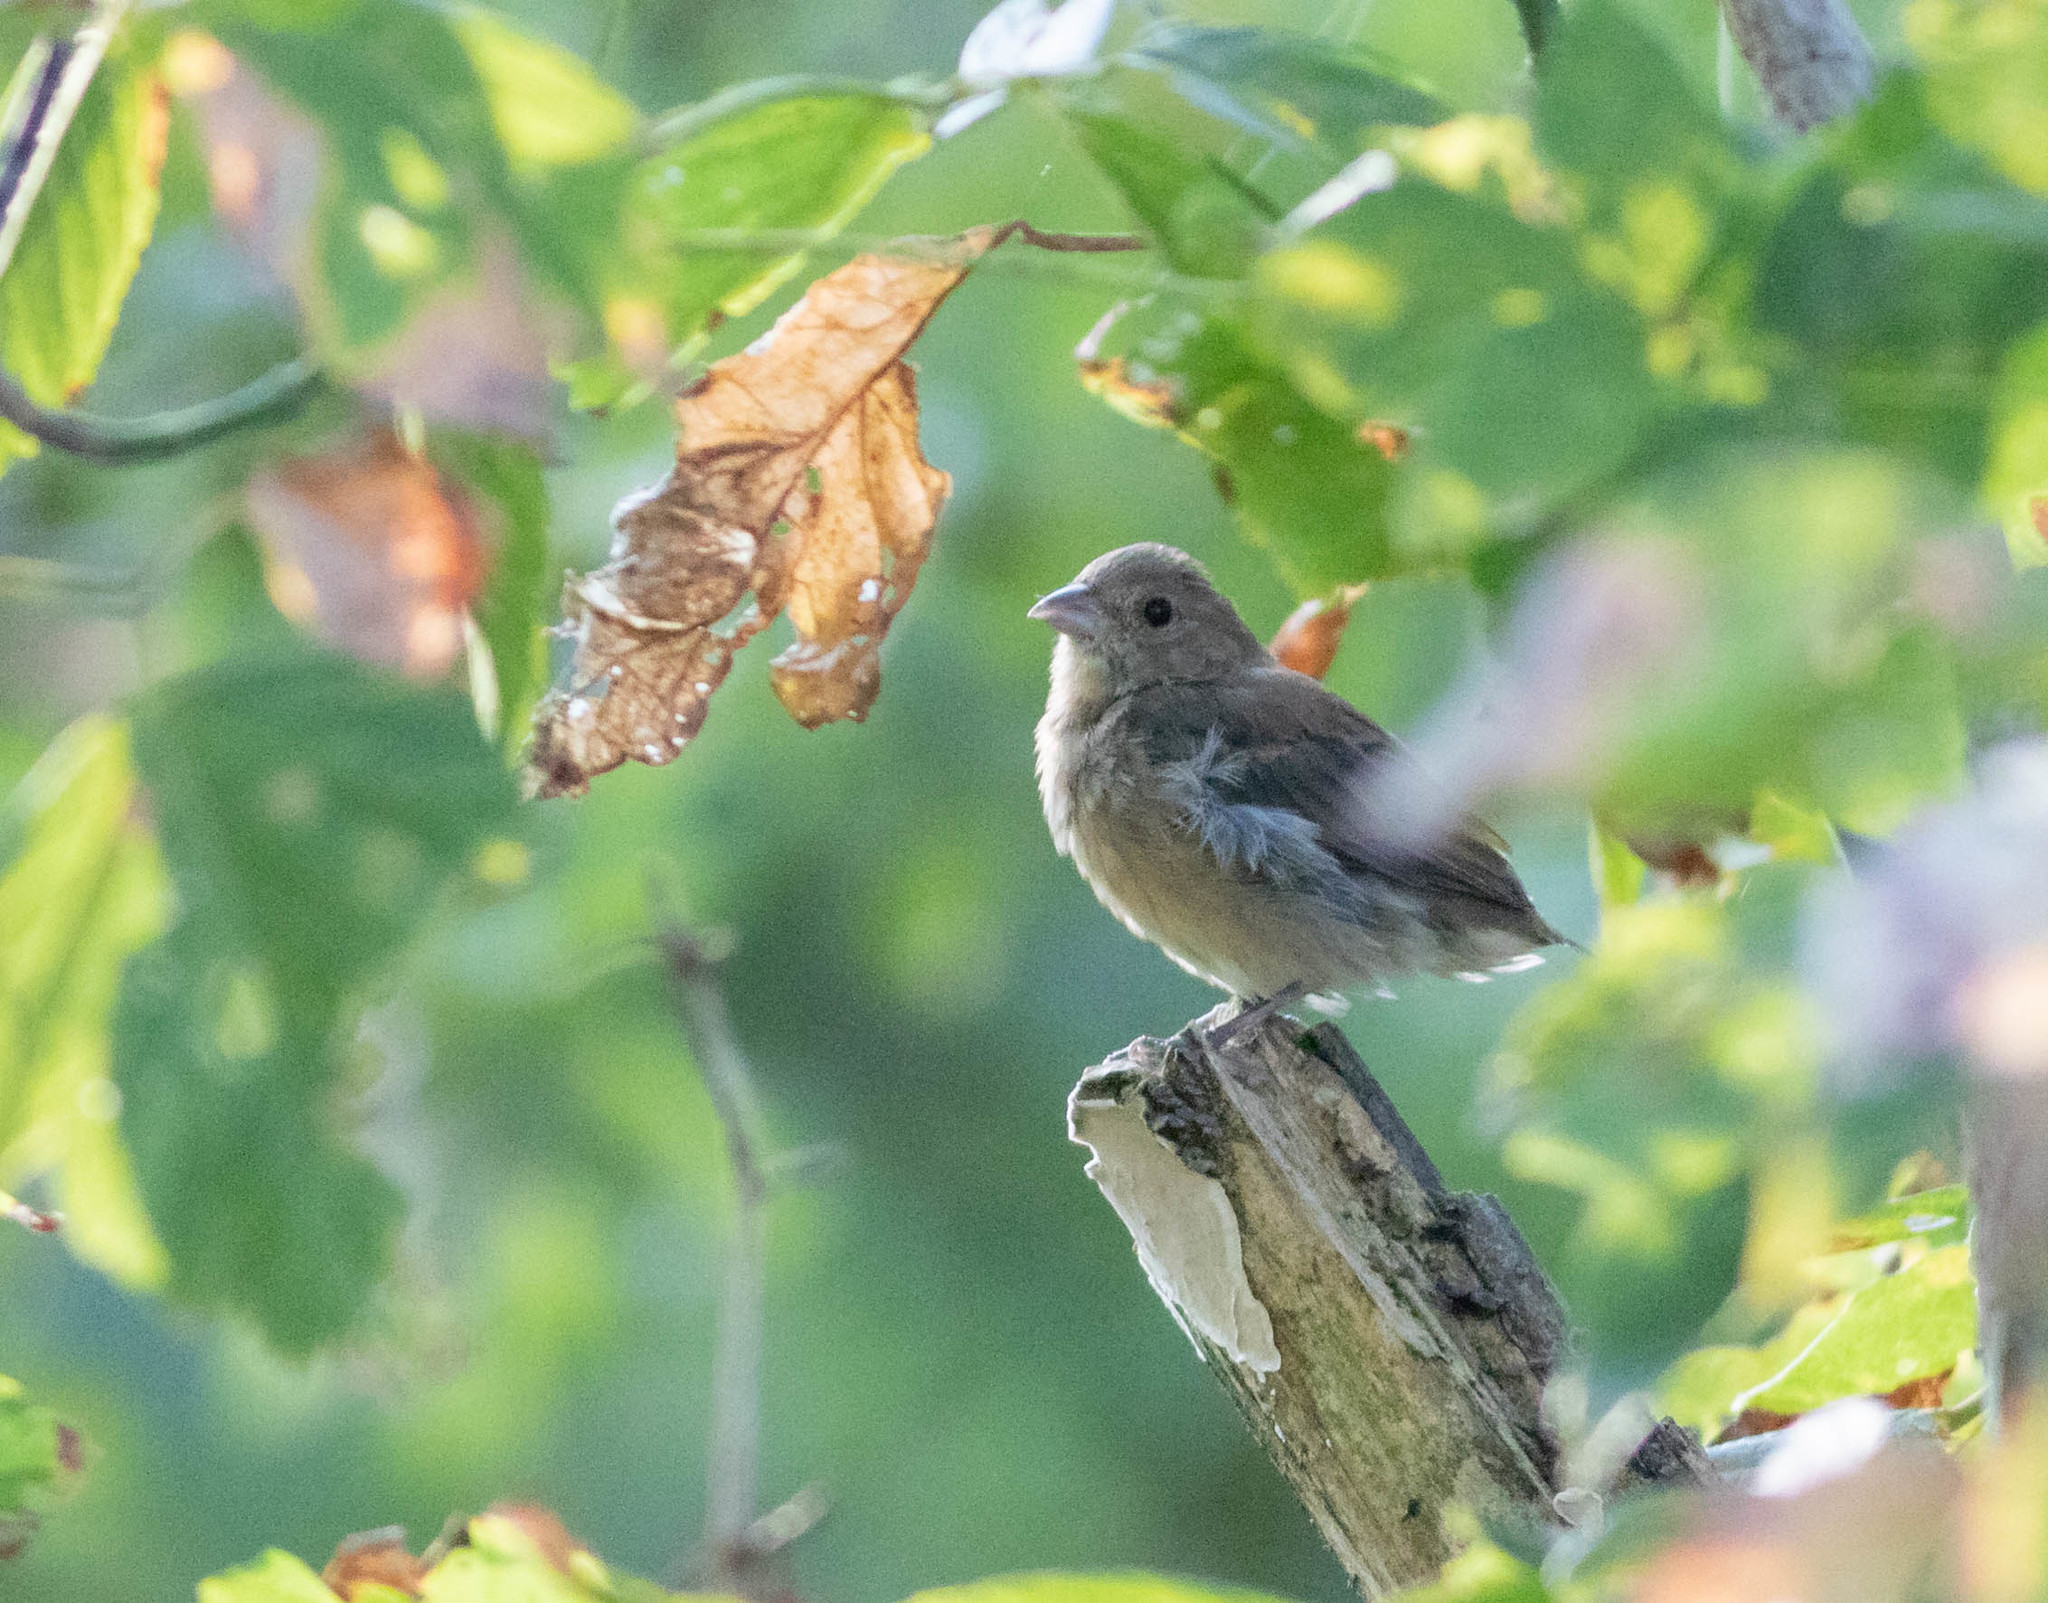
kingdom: Animalia
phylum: Chordata
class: Aves
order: Passeriformes
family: Cardinalidae
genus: Passerina
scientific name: Passerina cyanea
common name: Indigo bunting
